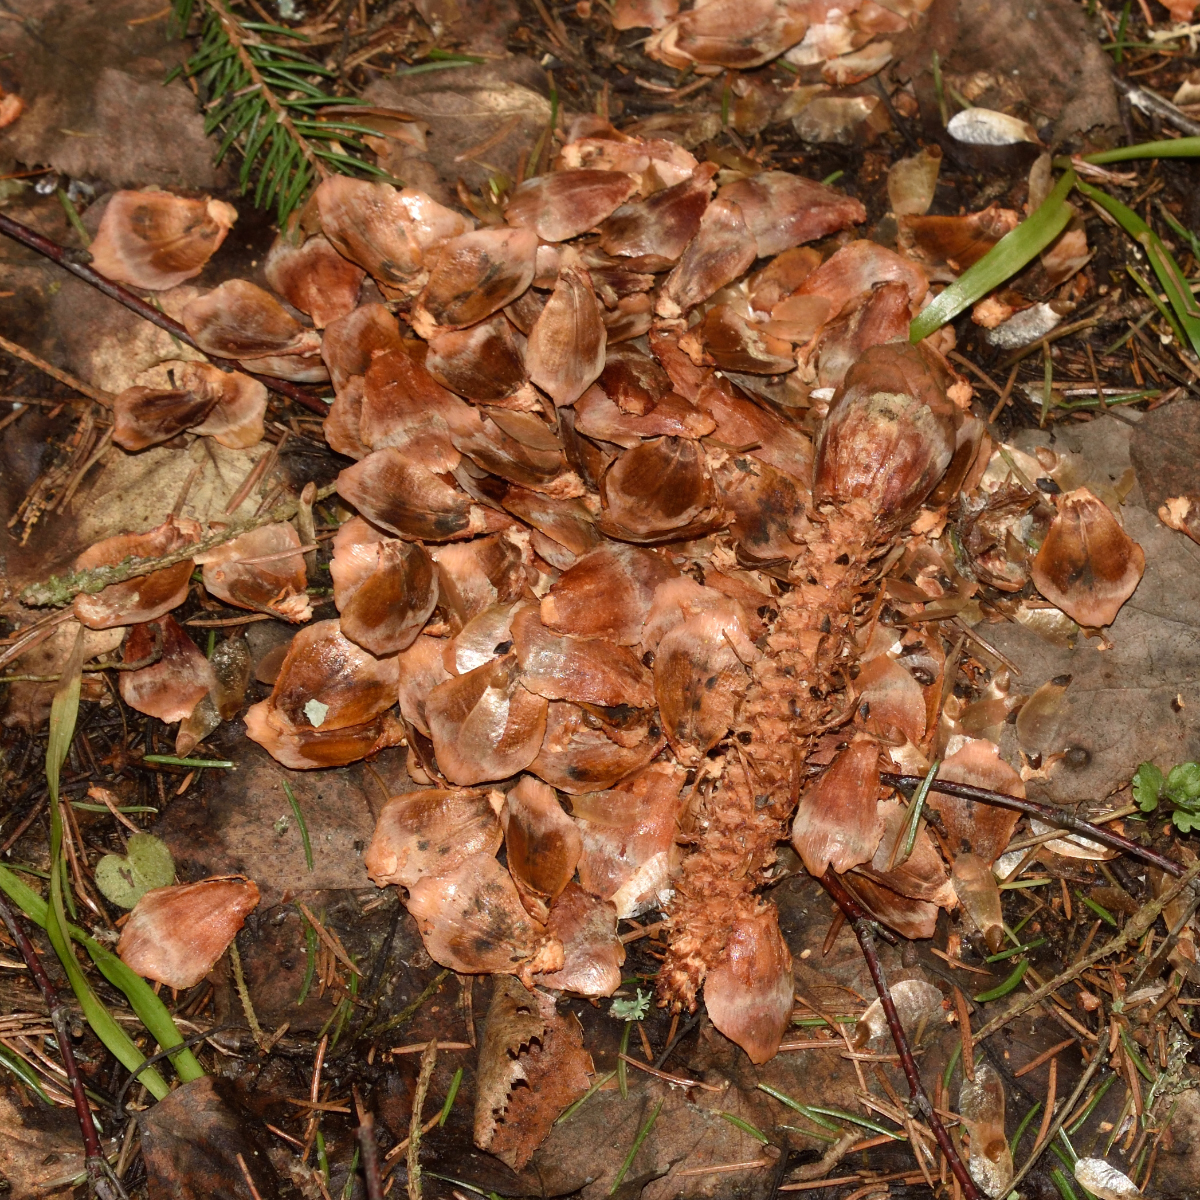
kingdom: Animalia
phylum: Chordata
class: Mammalia
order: Rodentia
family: Sciuridae
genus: Sciurus
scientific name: Sciurus vulgaris
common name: Eurasian red squirrel
